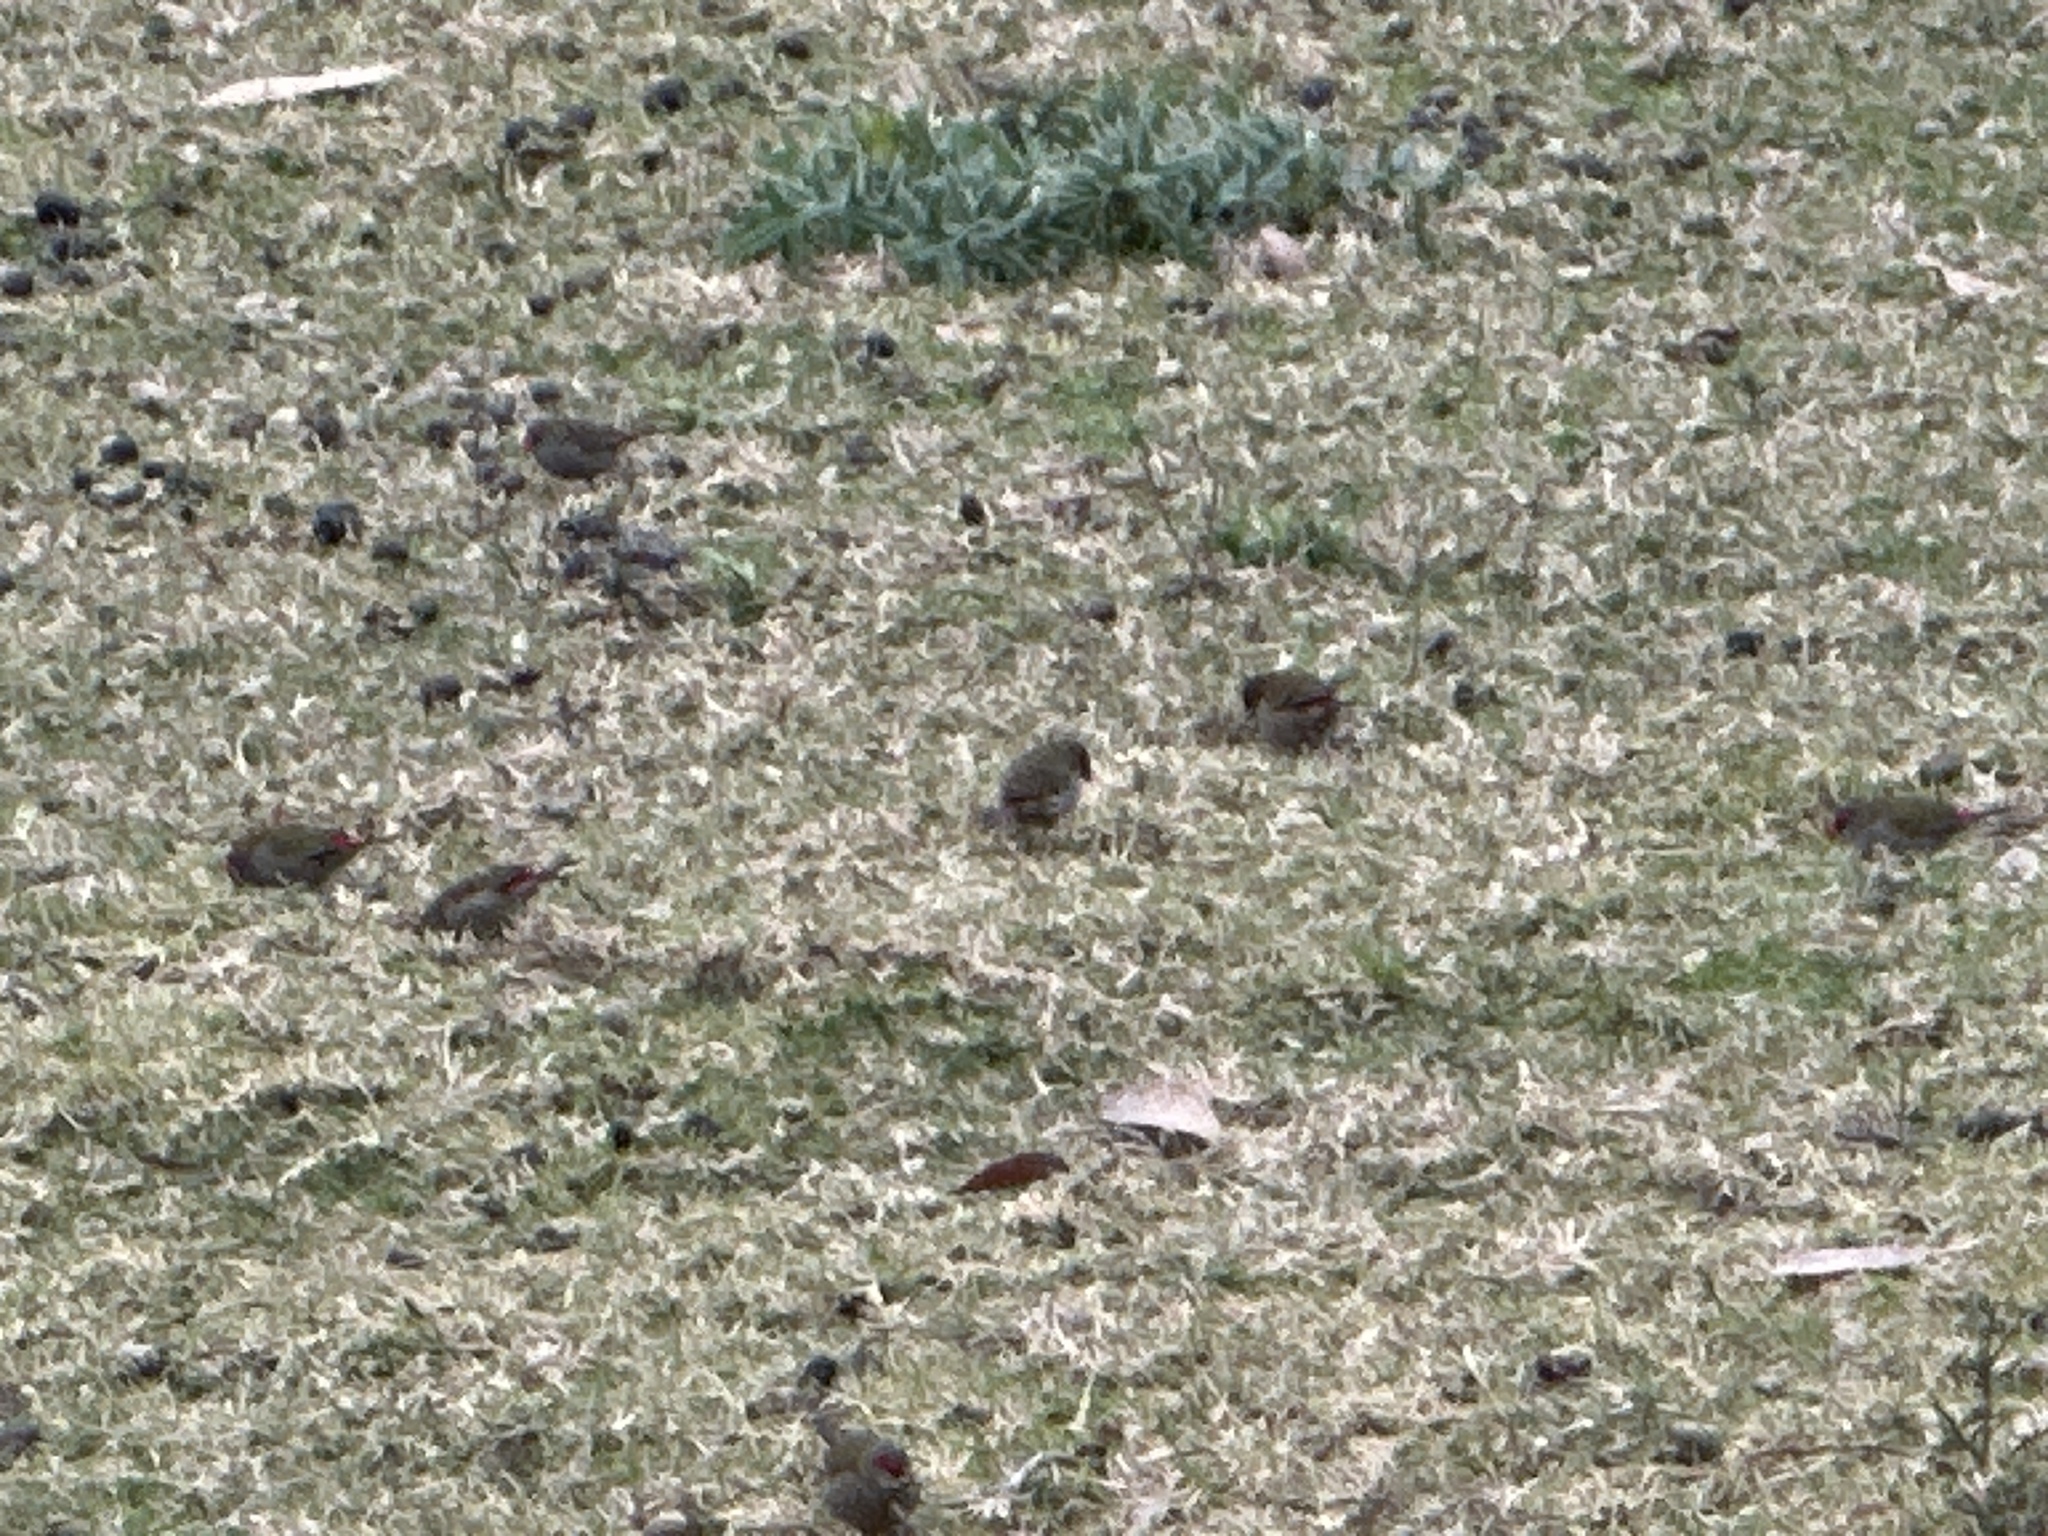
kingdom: Animalia
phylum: Chordata
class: Aves
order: Passeriformes
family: Estrildidae
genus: Neochmia
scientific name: Neochmia temporalis
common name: Red-browed finch
